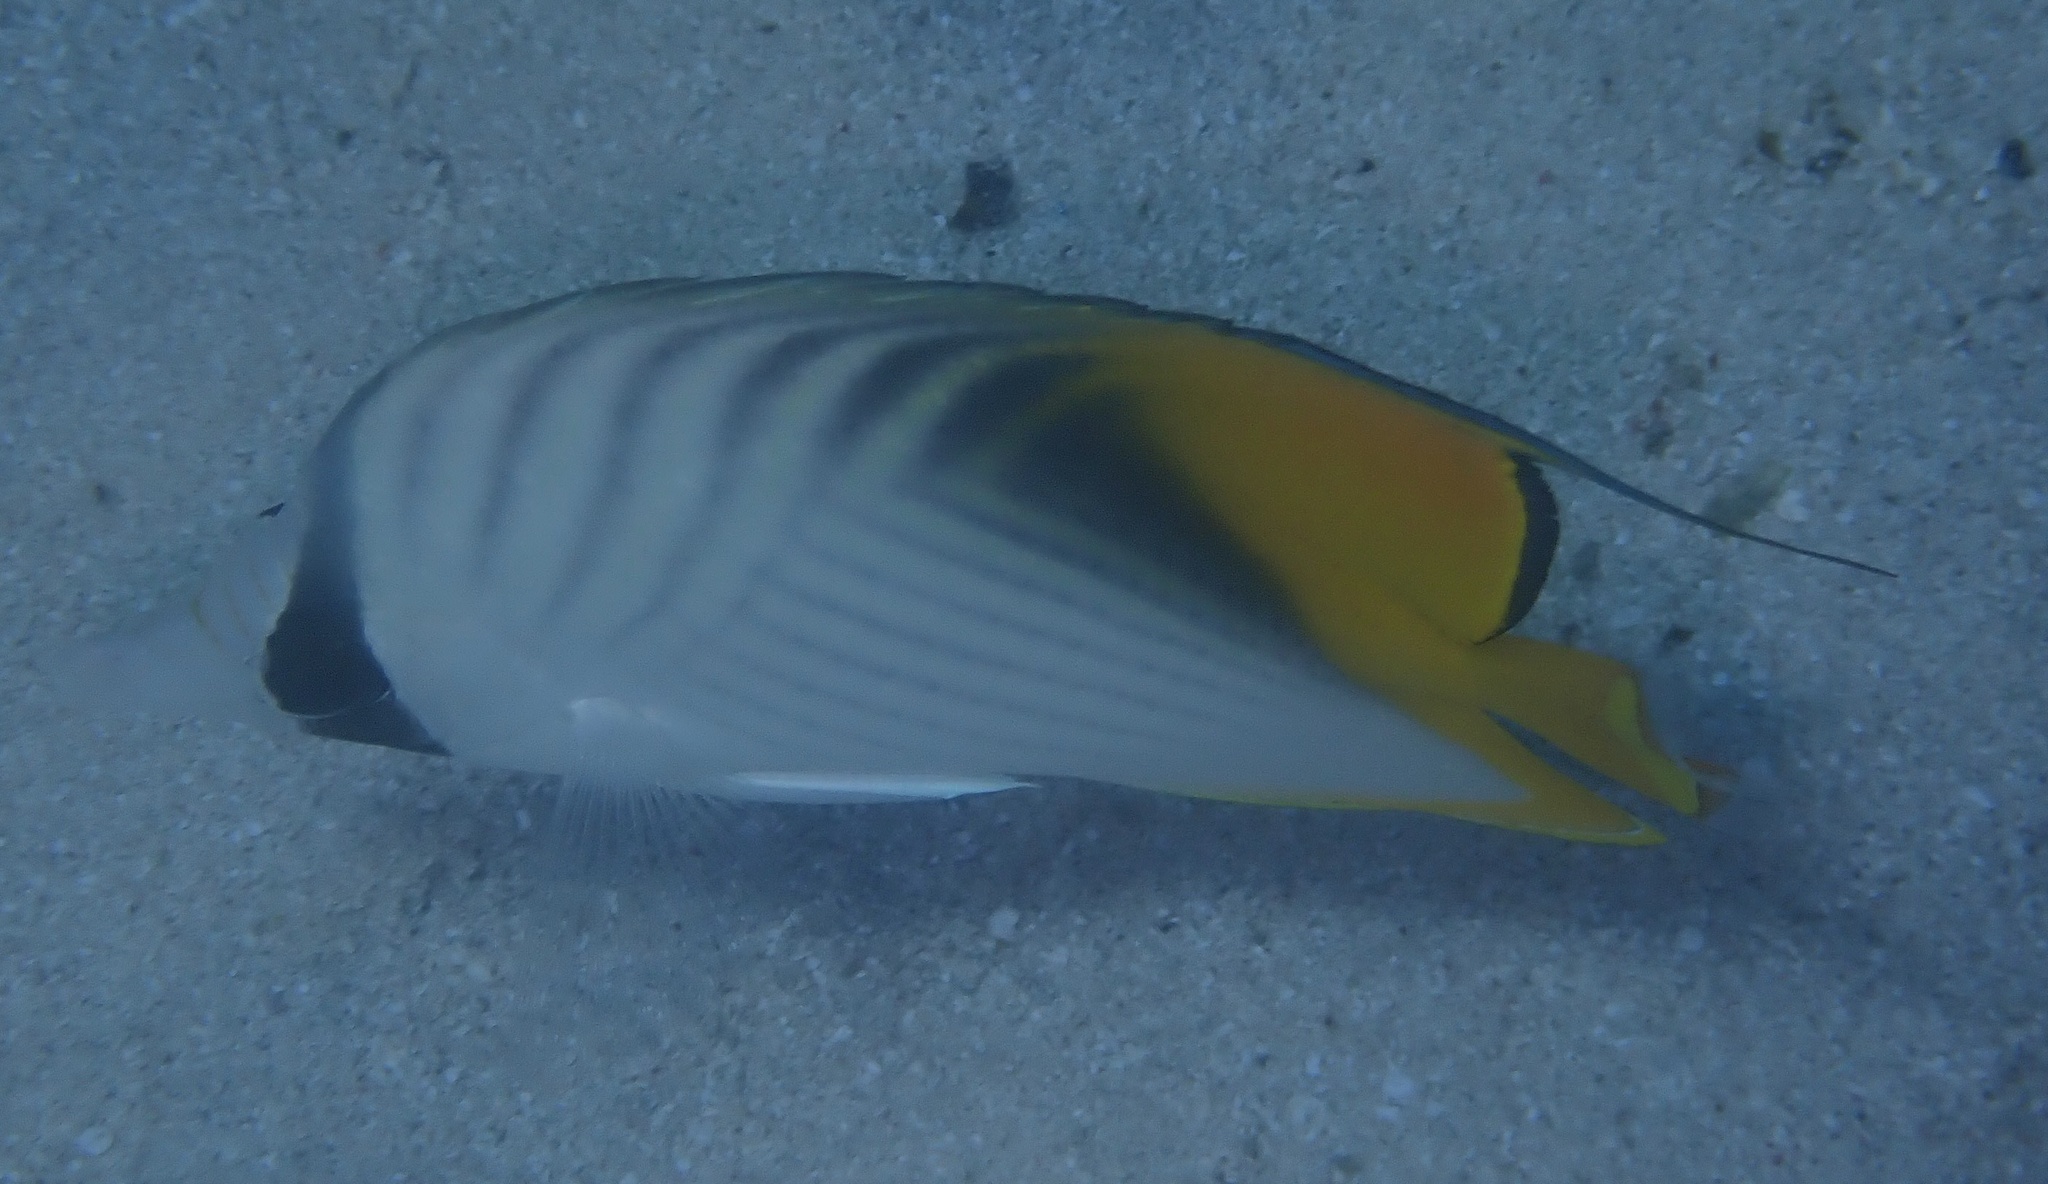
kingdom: Animalia
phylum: Chordata
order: Perciformes
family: Chaetodontidae
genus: Chaetodon
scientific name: Chaetodon auriga
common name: Threadfin butterflyfish
